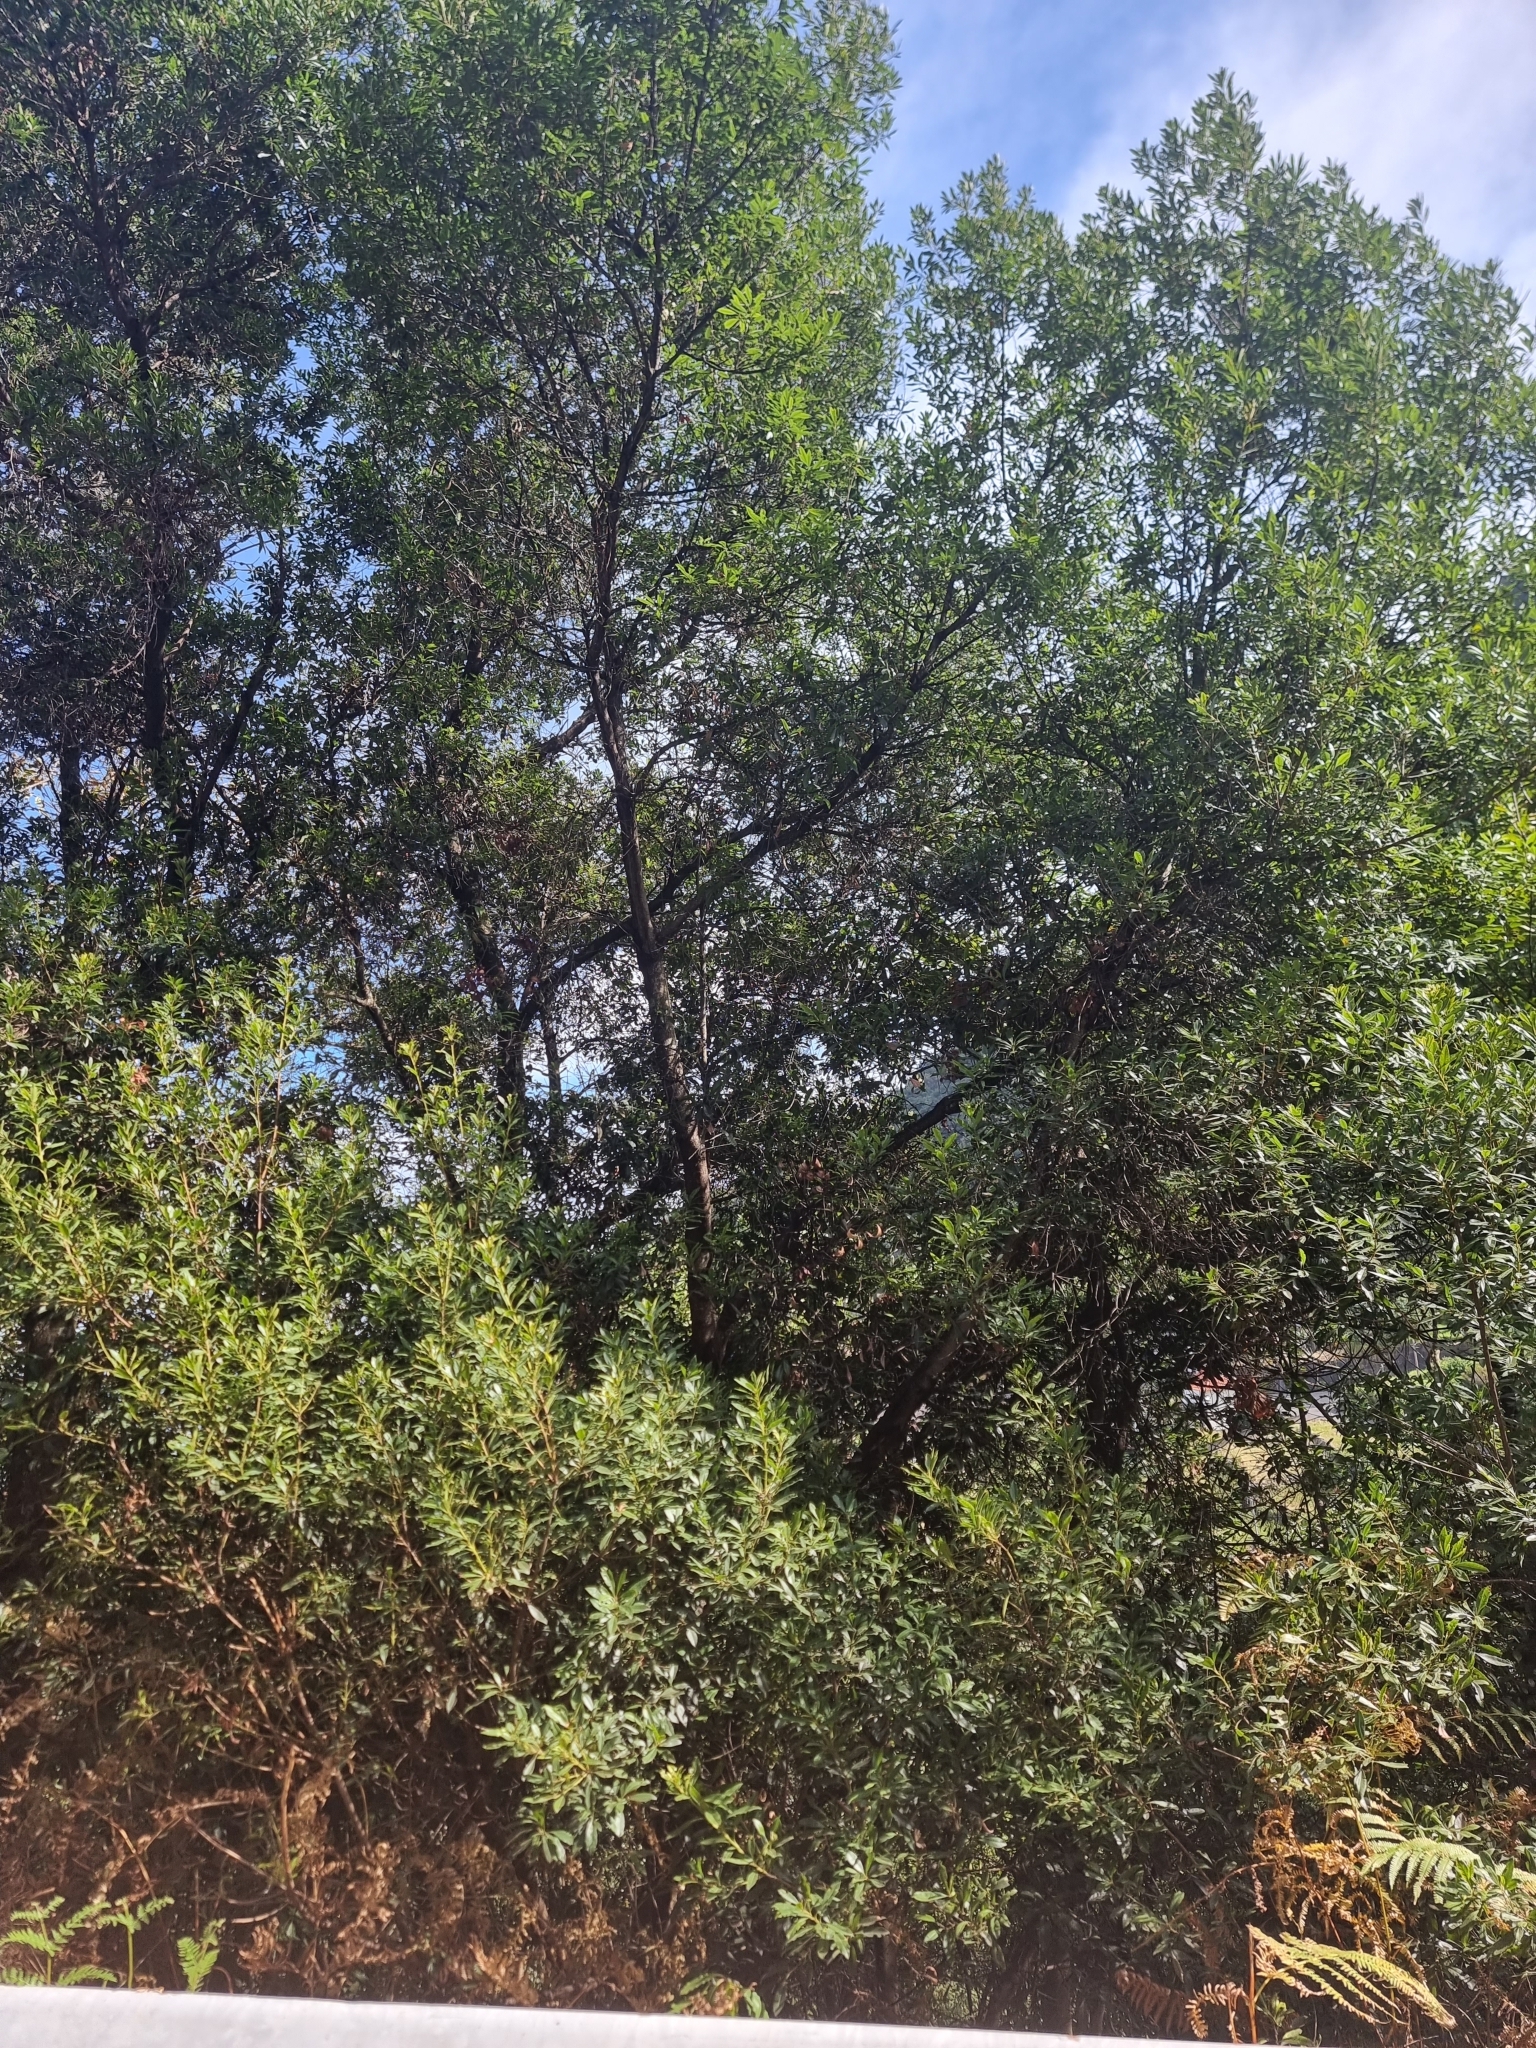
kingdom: Plantae
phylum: Tracheophyta
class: Magnoliopsida
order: Fagales
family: Myricaceae
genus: Morella
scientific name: Morella faya
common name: Firetree
